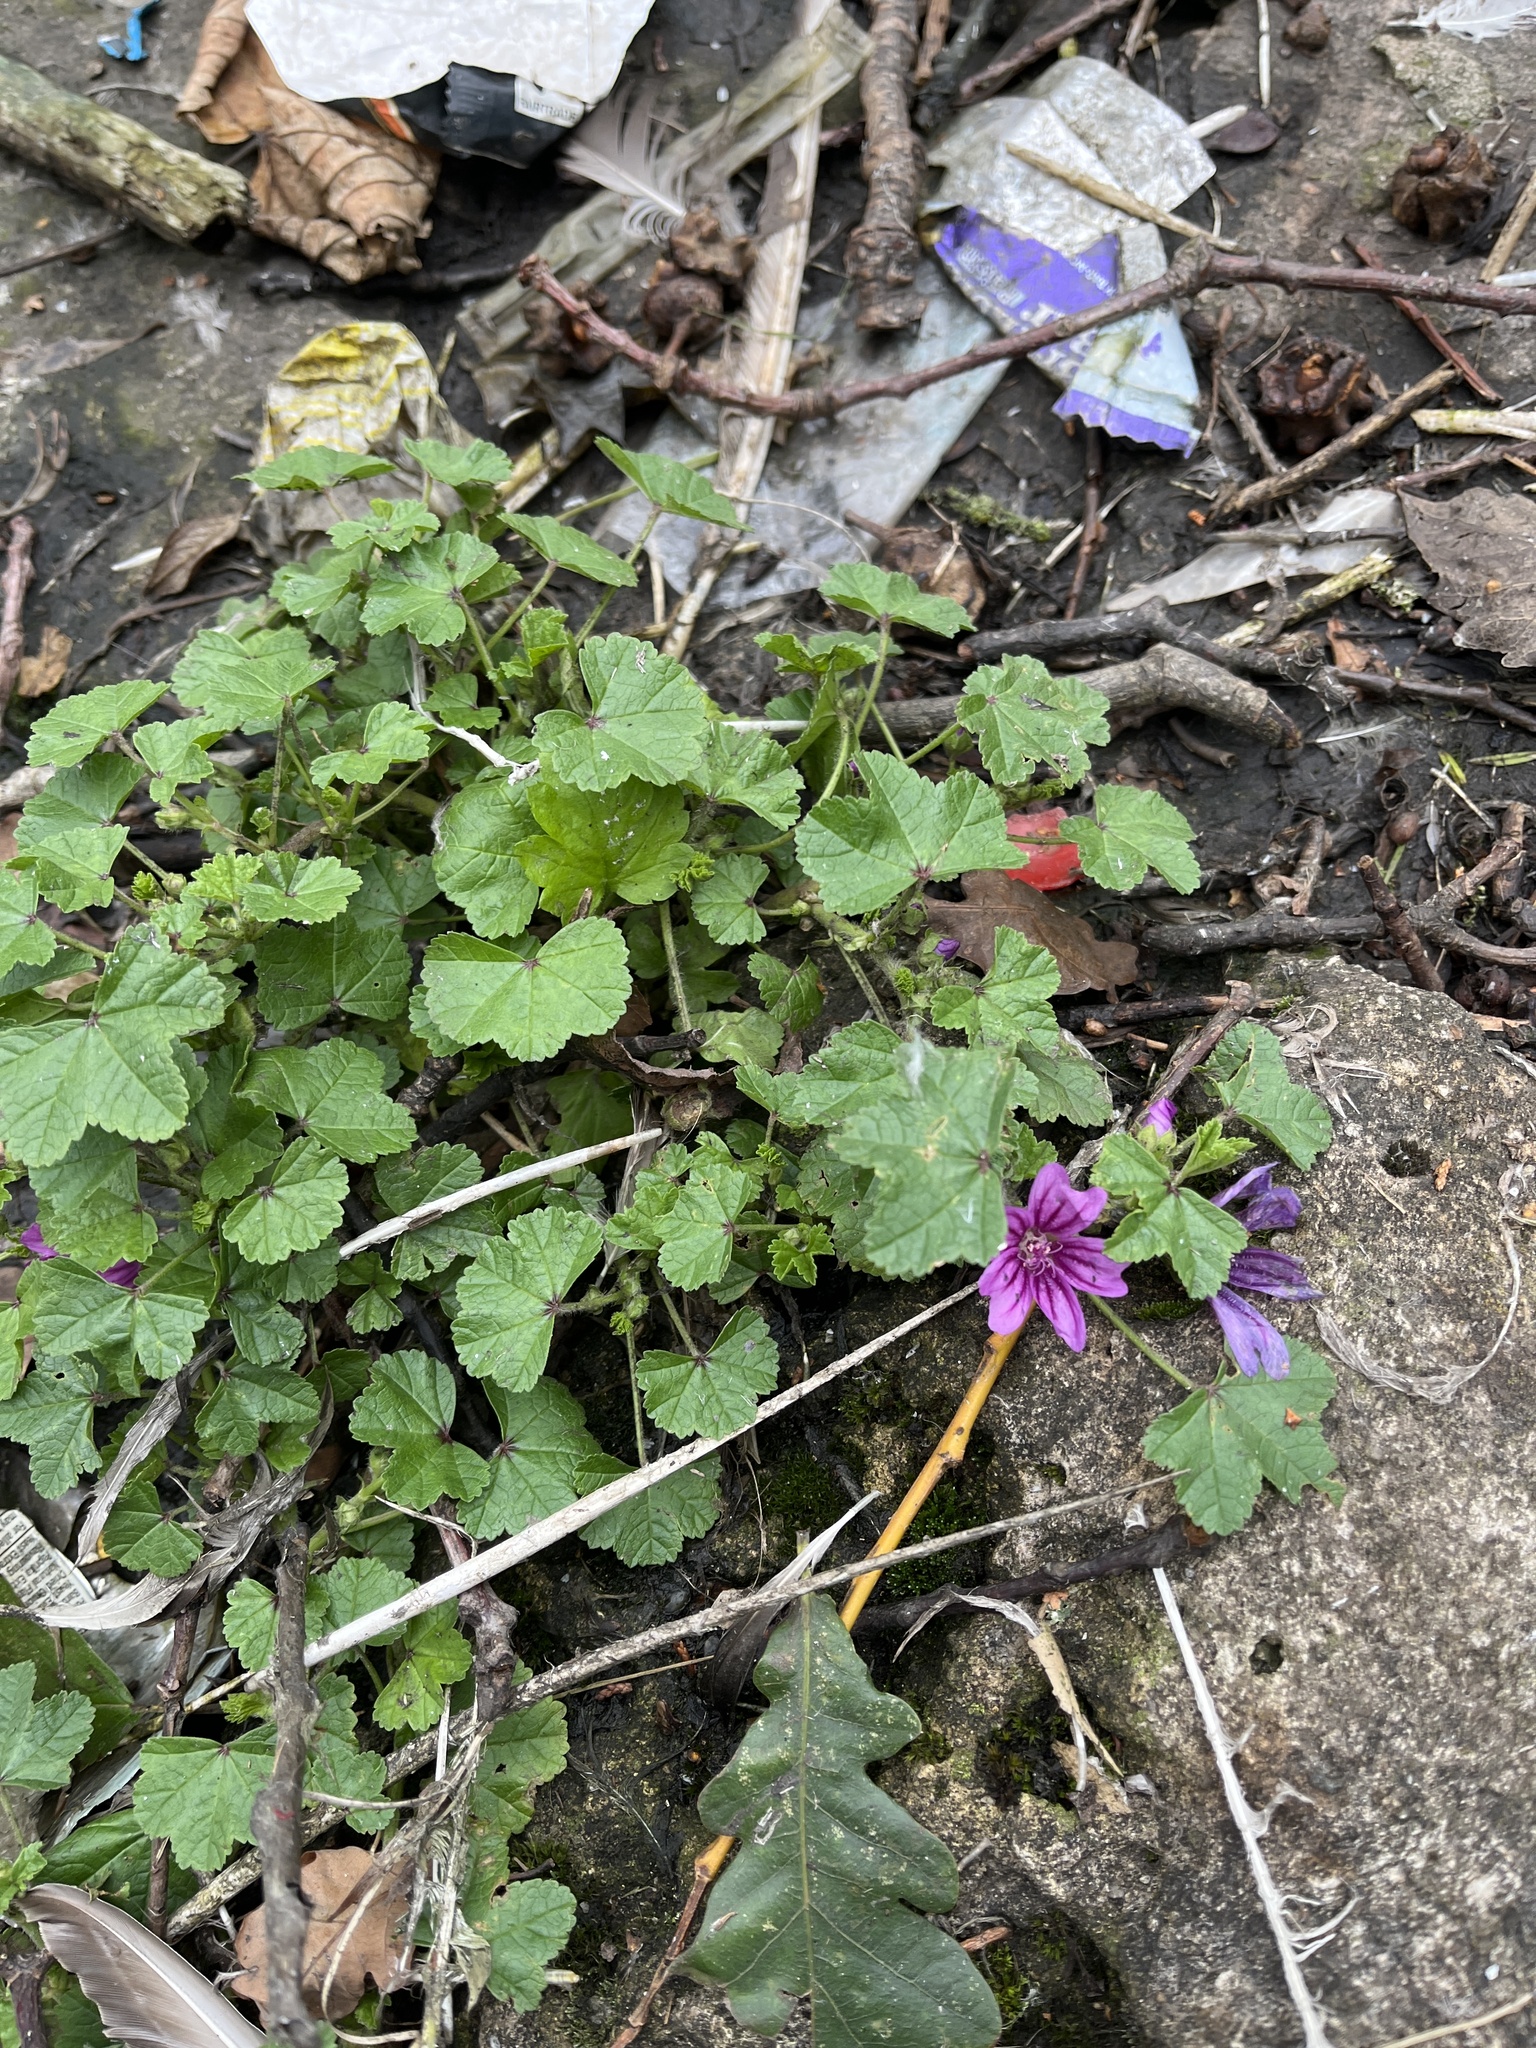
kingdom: Plantae
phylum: Tracheophyta
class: Magnoliopsida
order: Malvales
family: Malvaceae
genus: Malva
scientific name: Malva sylvestris
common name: Common mallow
